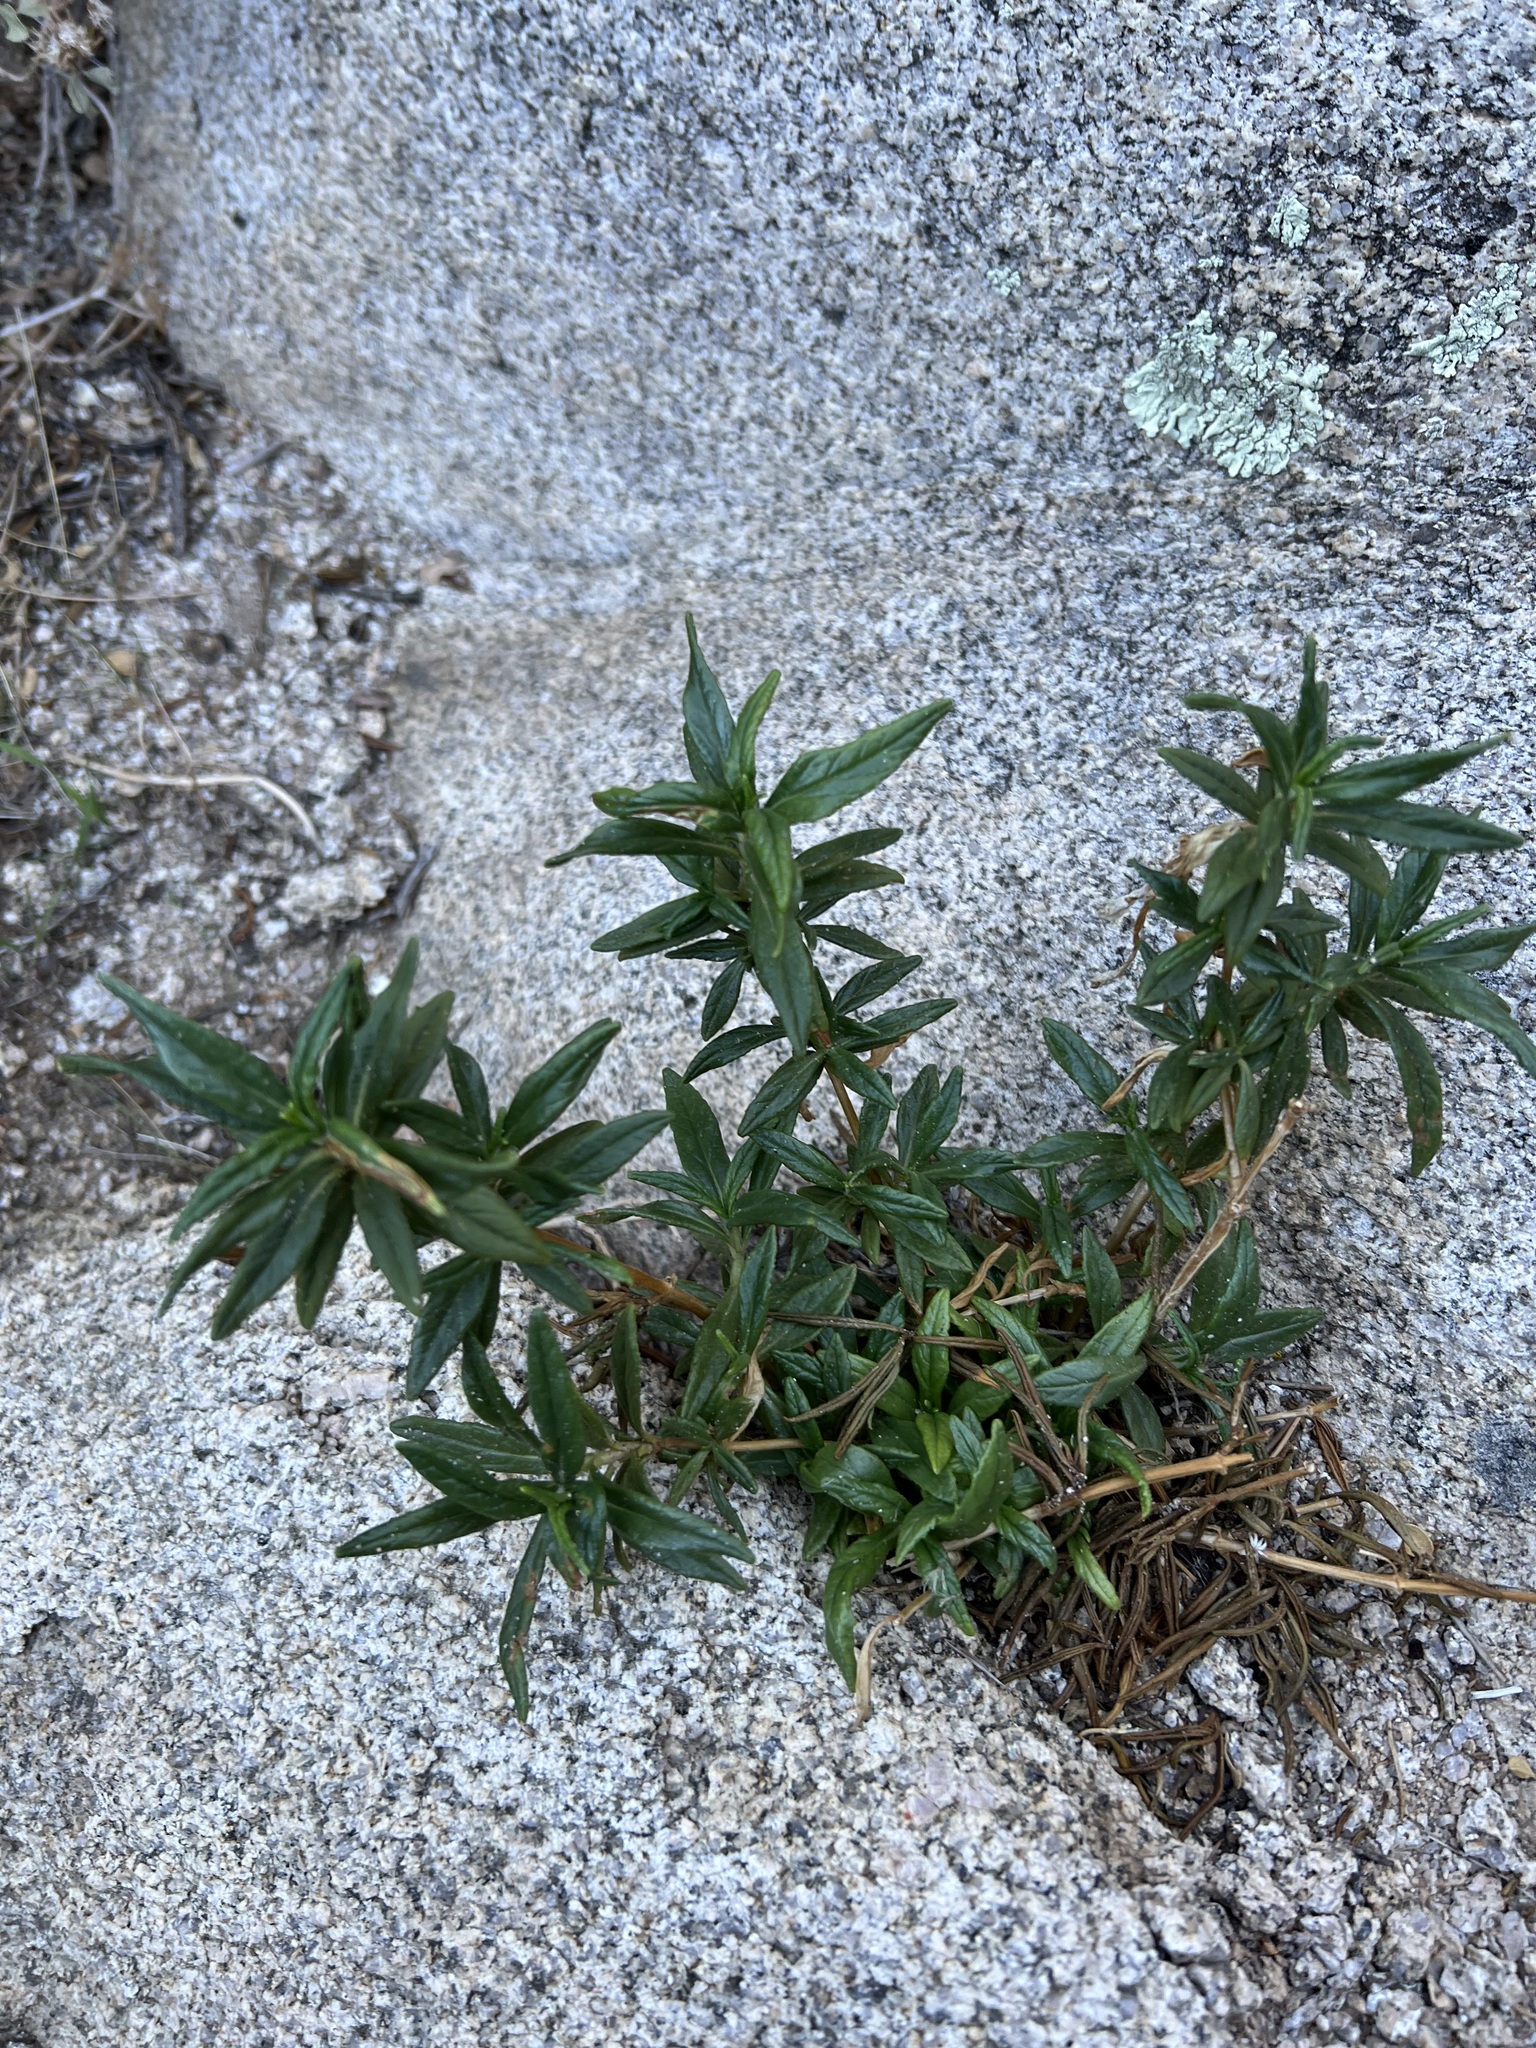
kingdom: Plantae
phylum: Tracheophyta
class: Magnoliopsida
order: Lamiales
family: Phrymaceae
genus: Diplacus
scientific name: Diplacus calycinus
